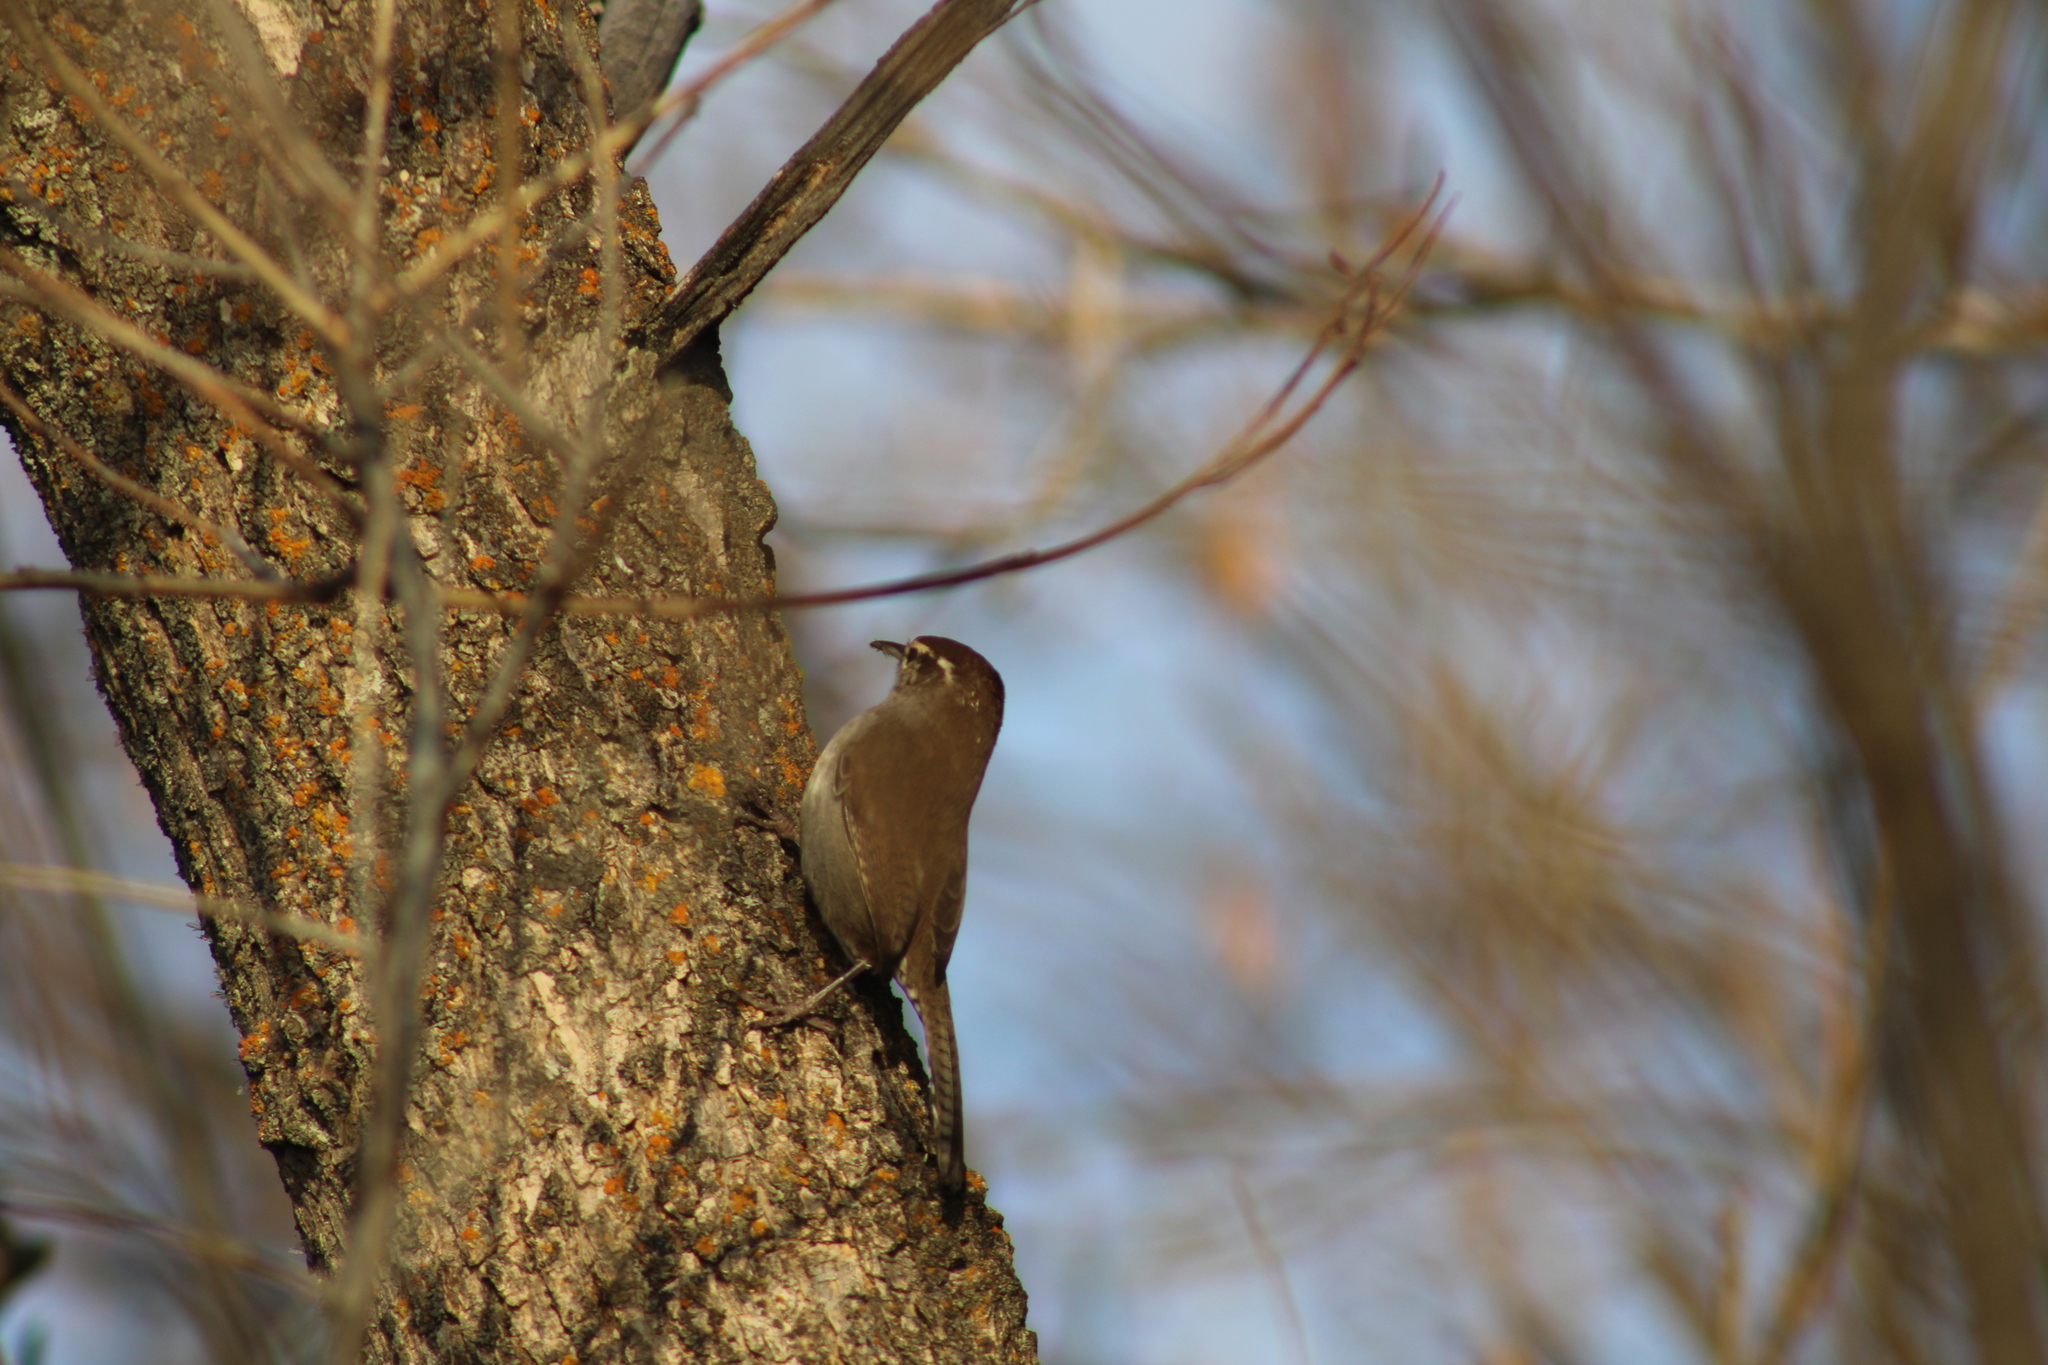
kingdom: Animalia
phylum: Chordata
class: Aves
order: Passeriformes
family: Troglodytidae
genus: Thryomanes
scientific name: Thryomanes bewickii
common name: Bewick's wren
